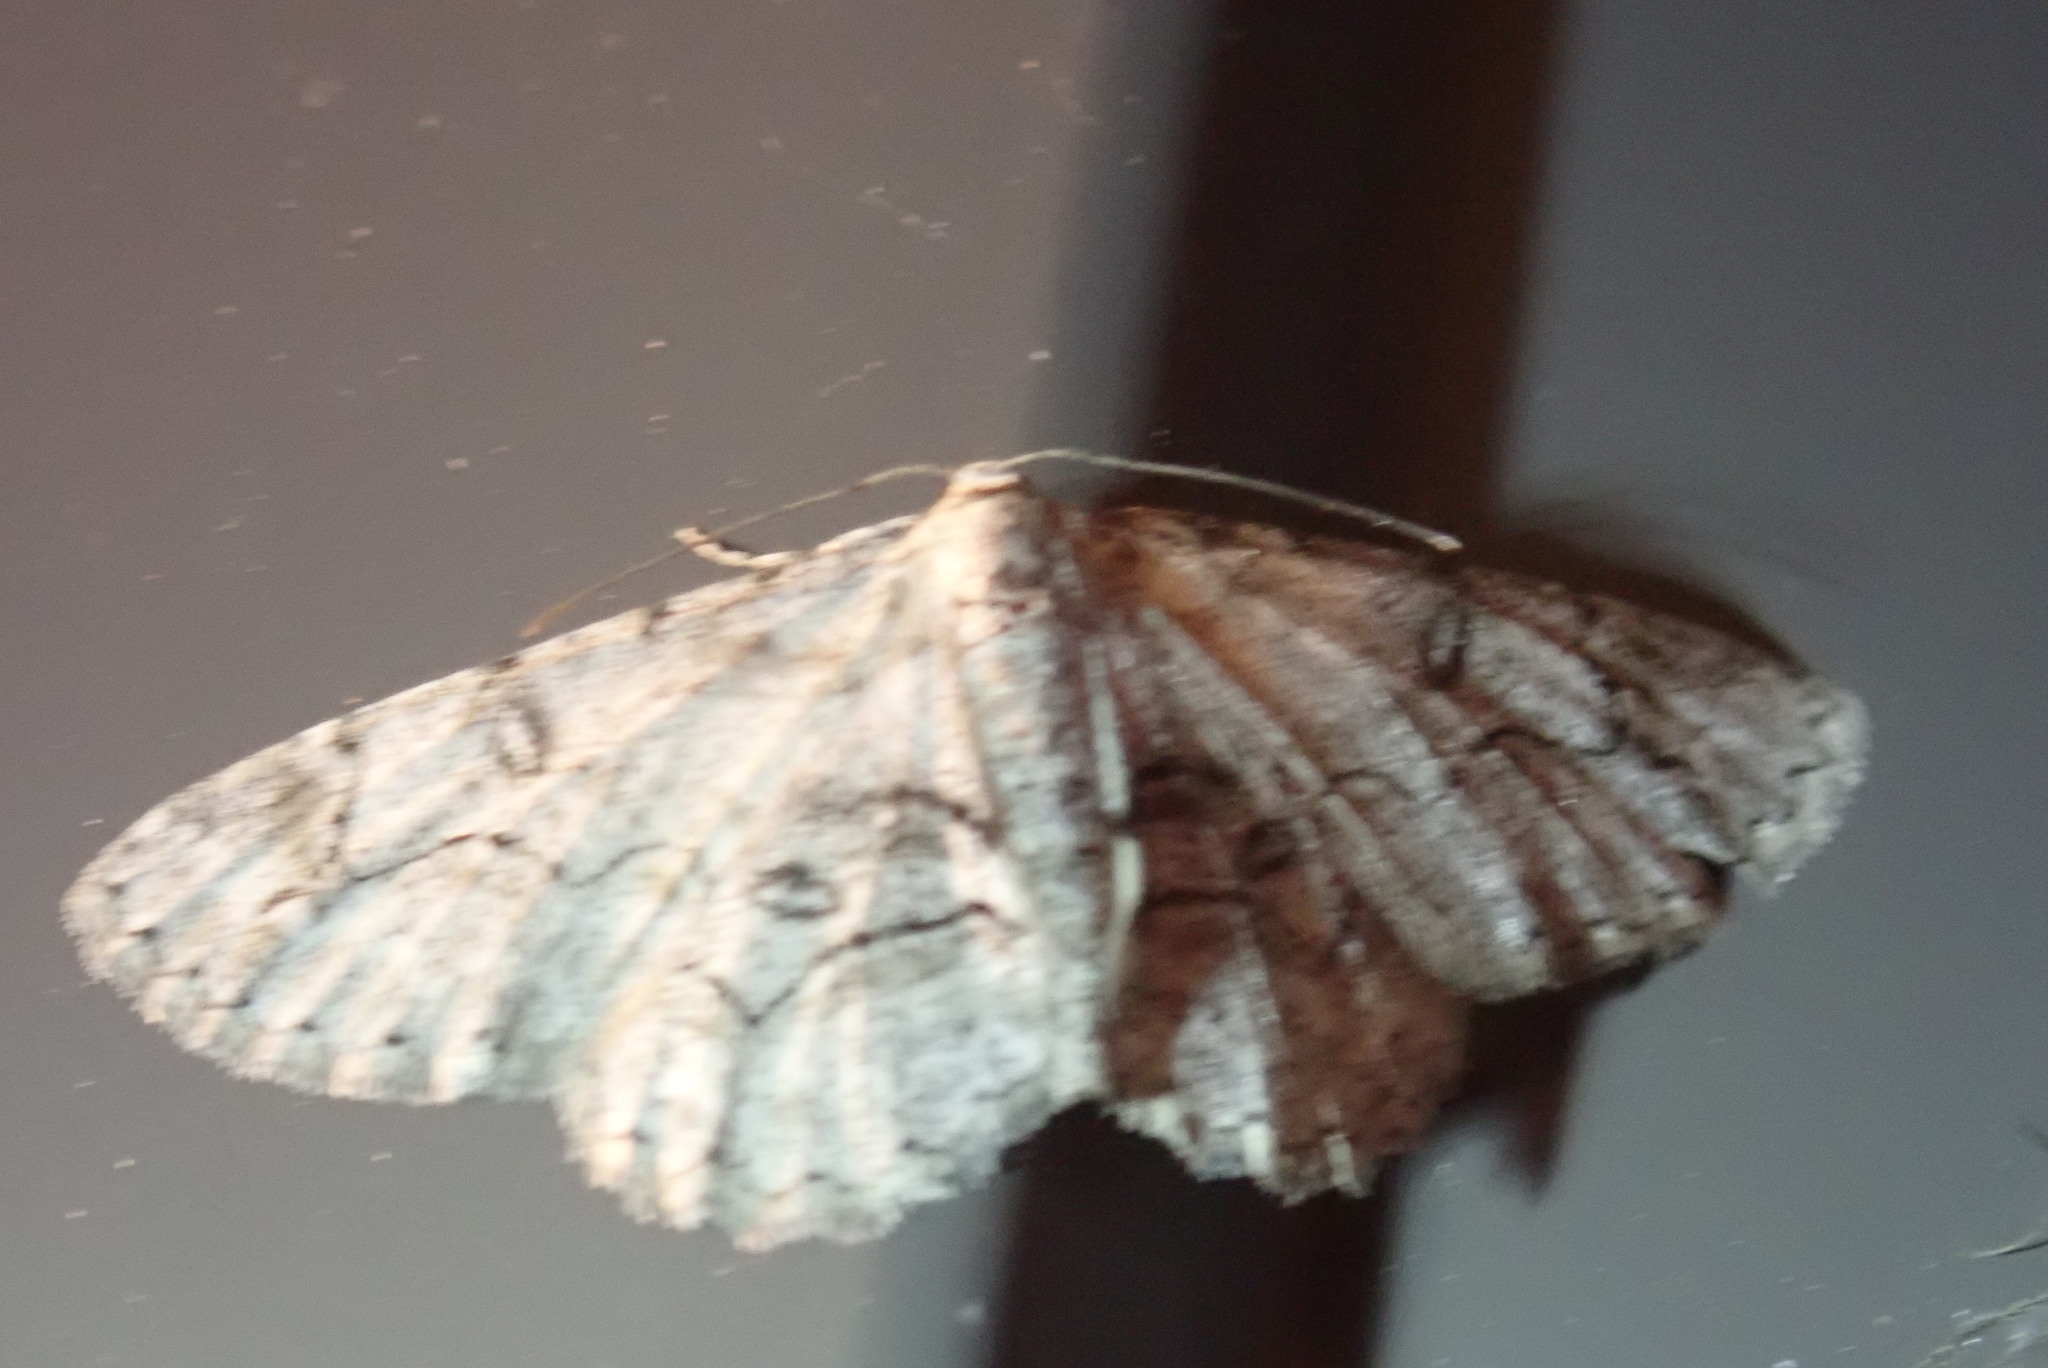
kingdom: Animalia
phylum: Arthropoda
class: Insecta
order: Lepidoptera
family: Geometridae
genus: Iridopsis
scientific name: Iridopsis larvaria
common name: Bent-line gray
